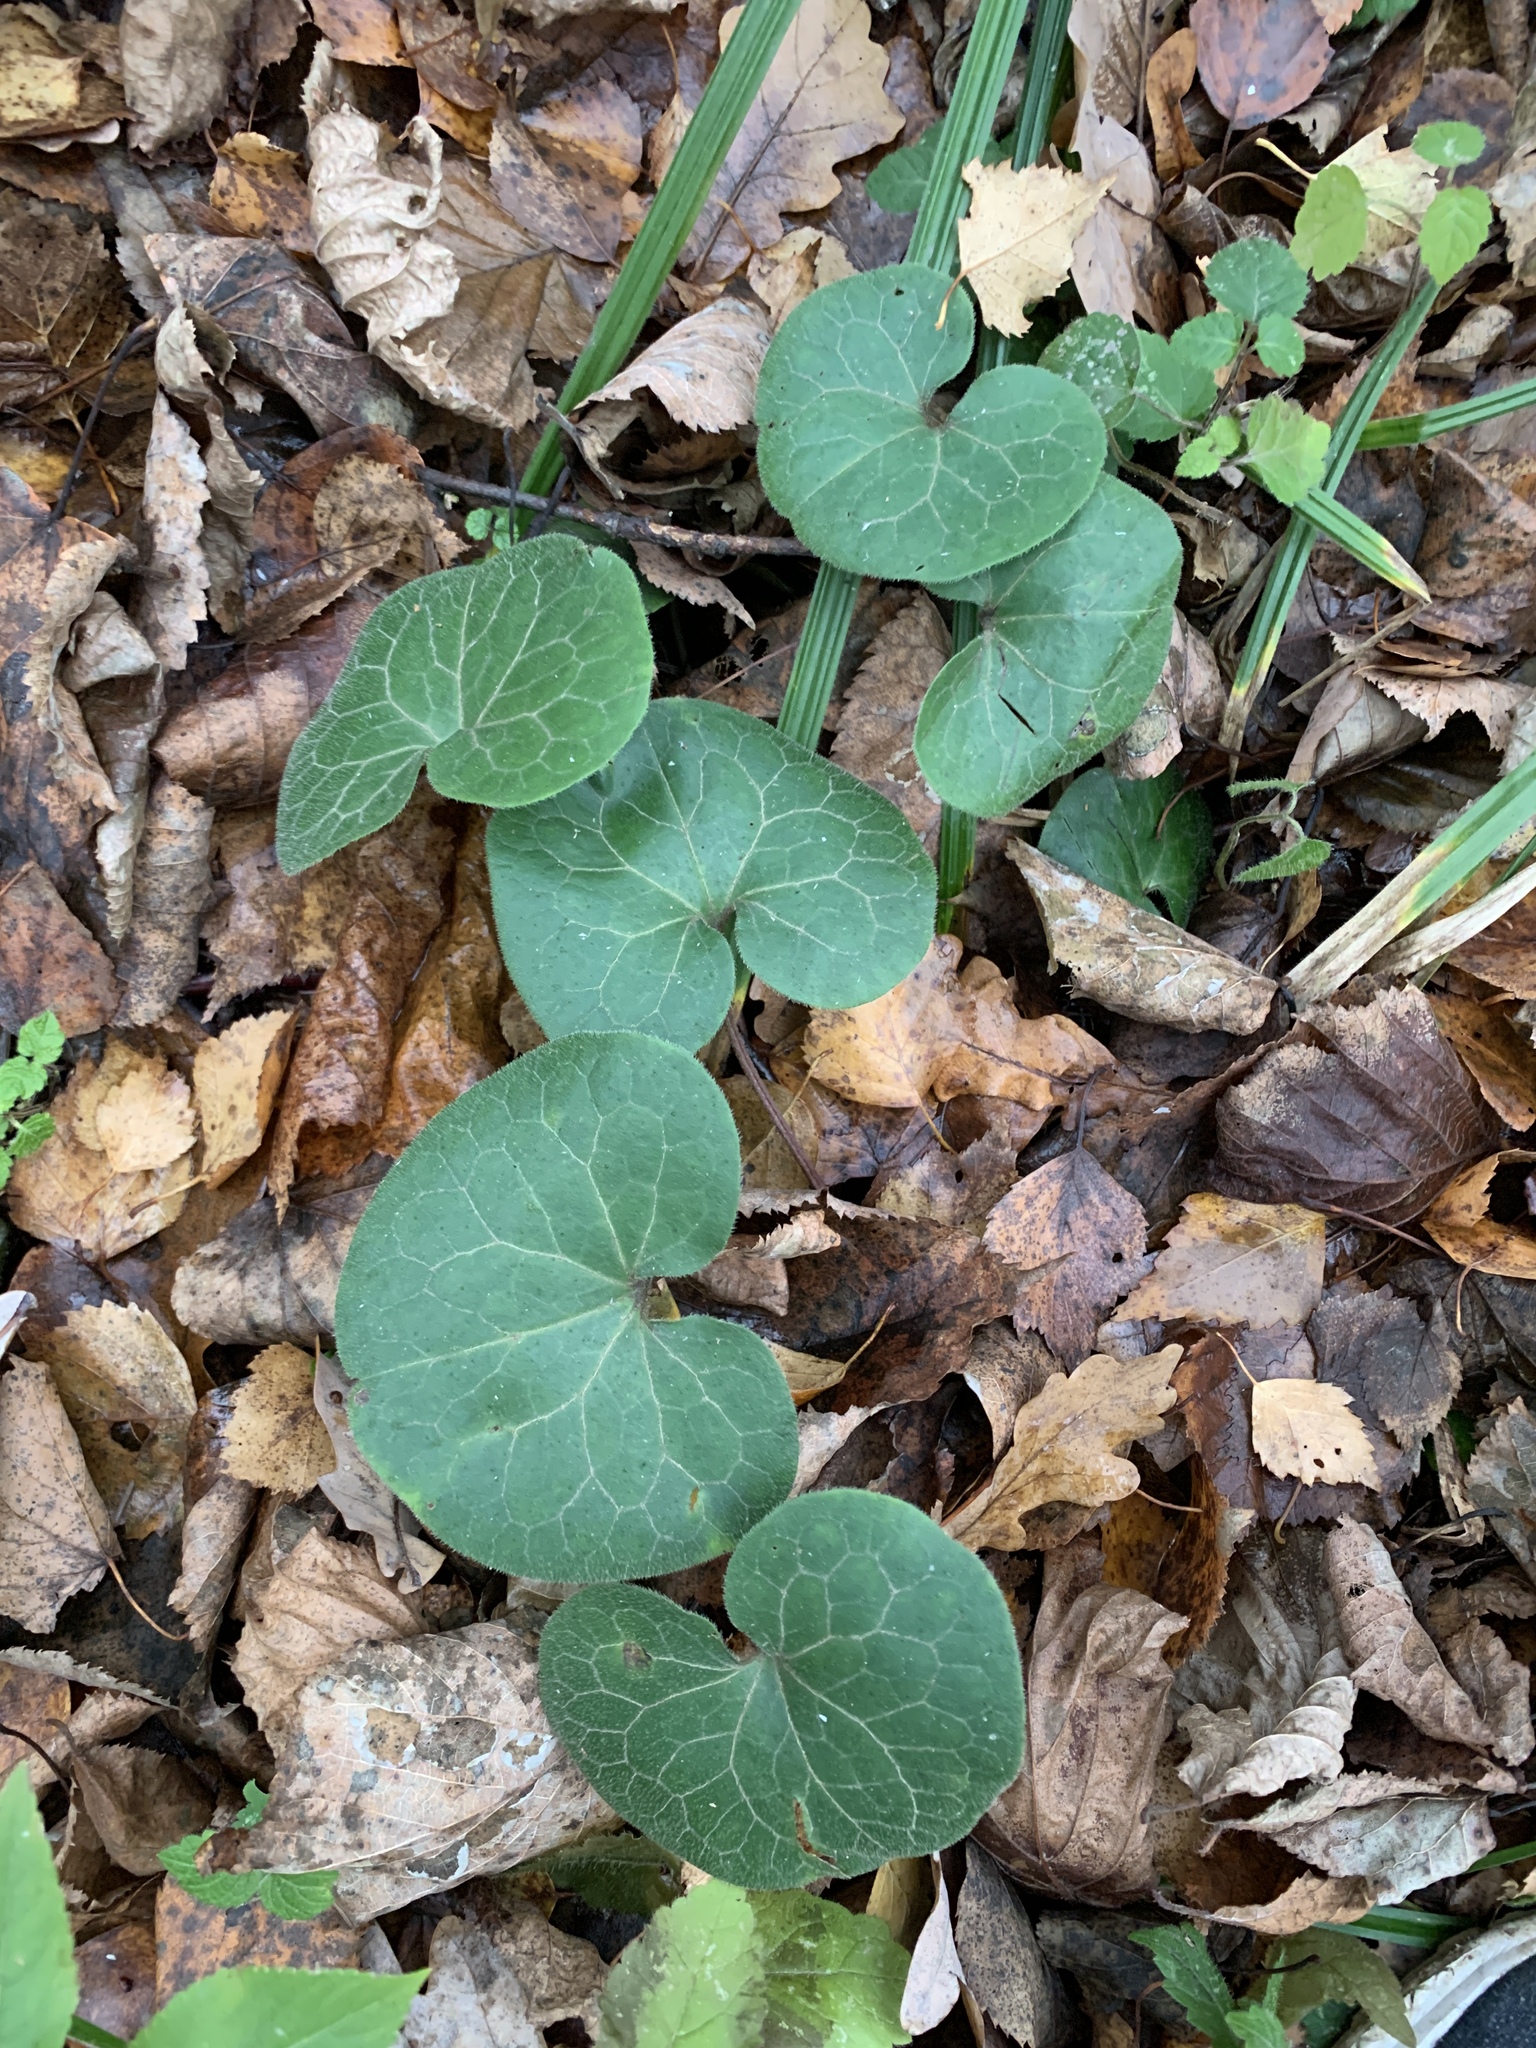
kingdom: Plantae
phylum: Tracheophyta
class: Magnoliopsida
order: Piperales
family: Aristolochiaceae
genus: Asarum
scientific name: Asarum europaeum
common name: Asarabacca
